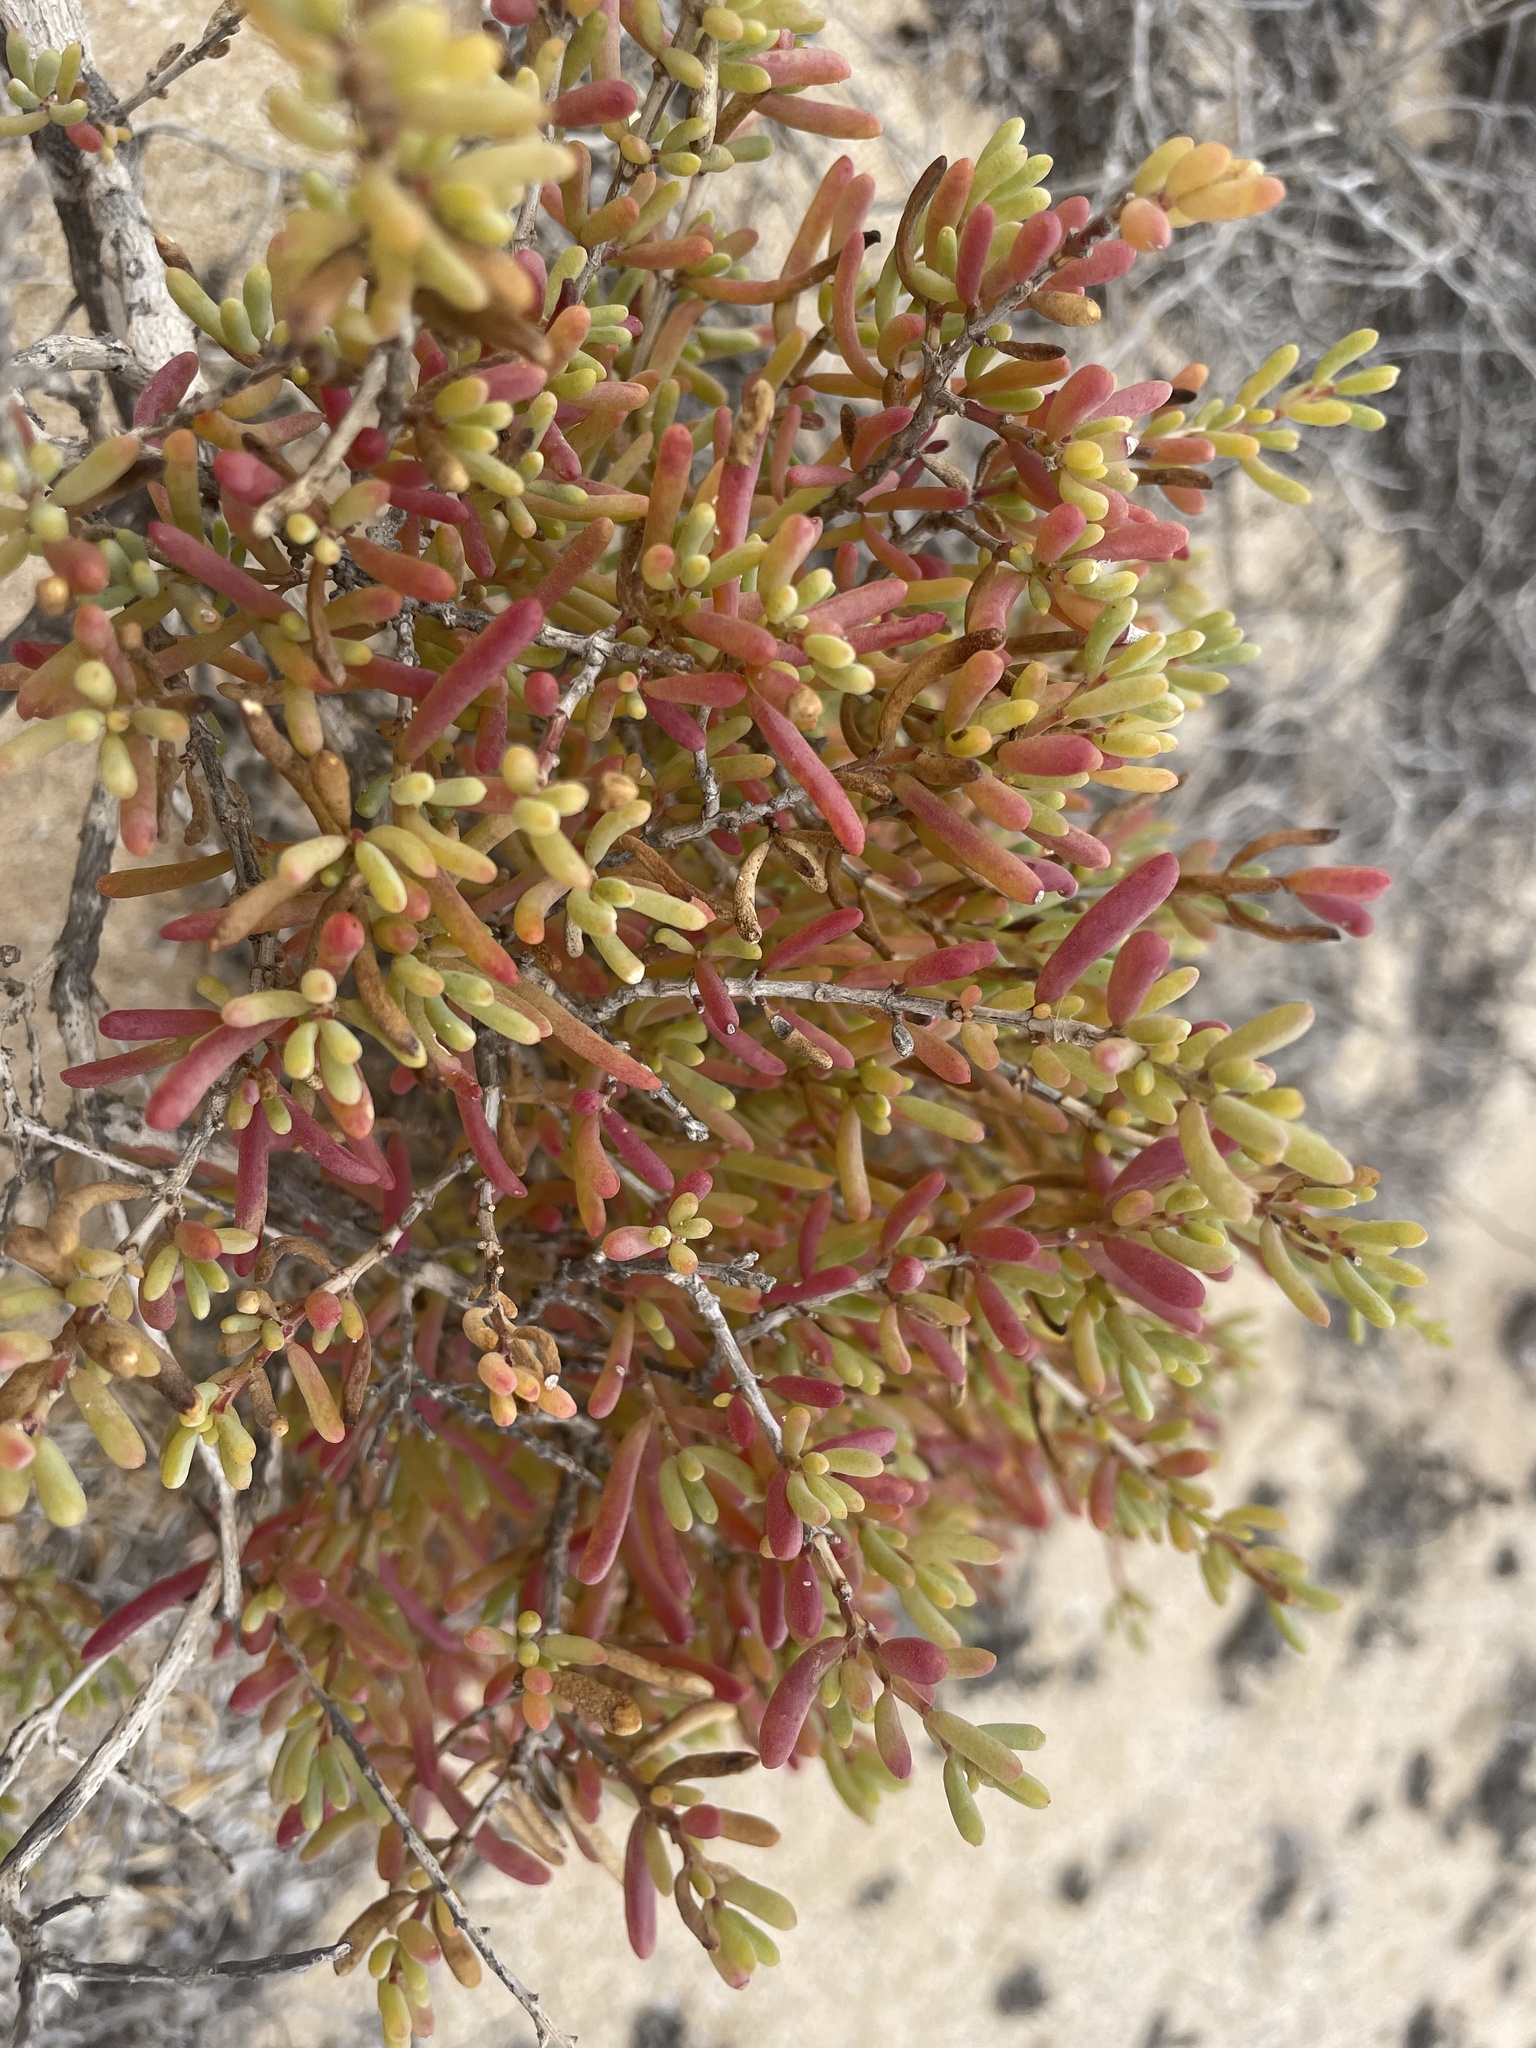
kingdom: Plantae
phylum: Tracheophyta
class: Magnoliopsida
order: Caryophyllales
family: Amaranthaceae
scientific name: Amaranthaceae
